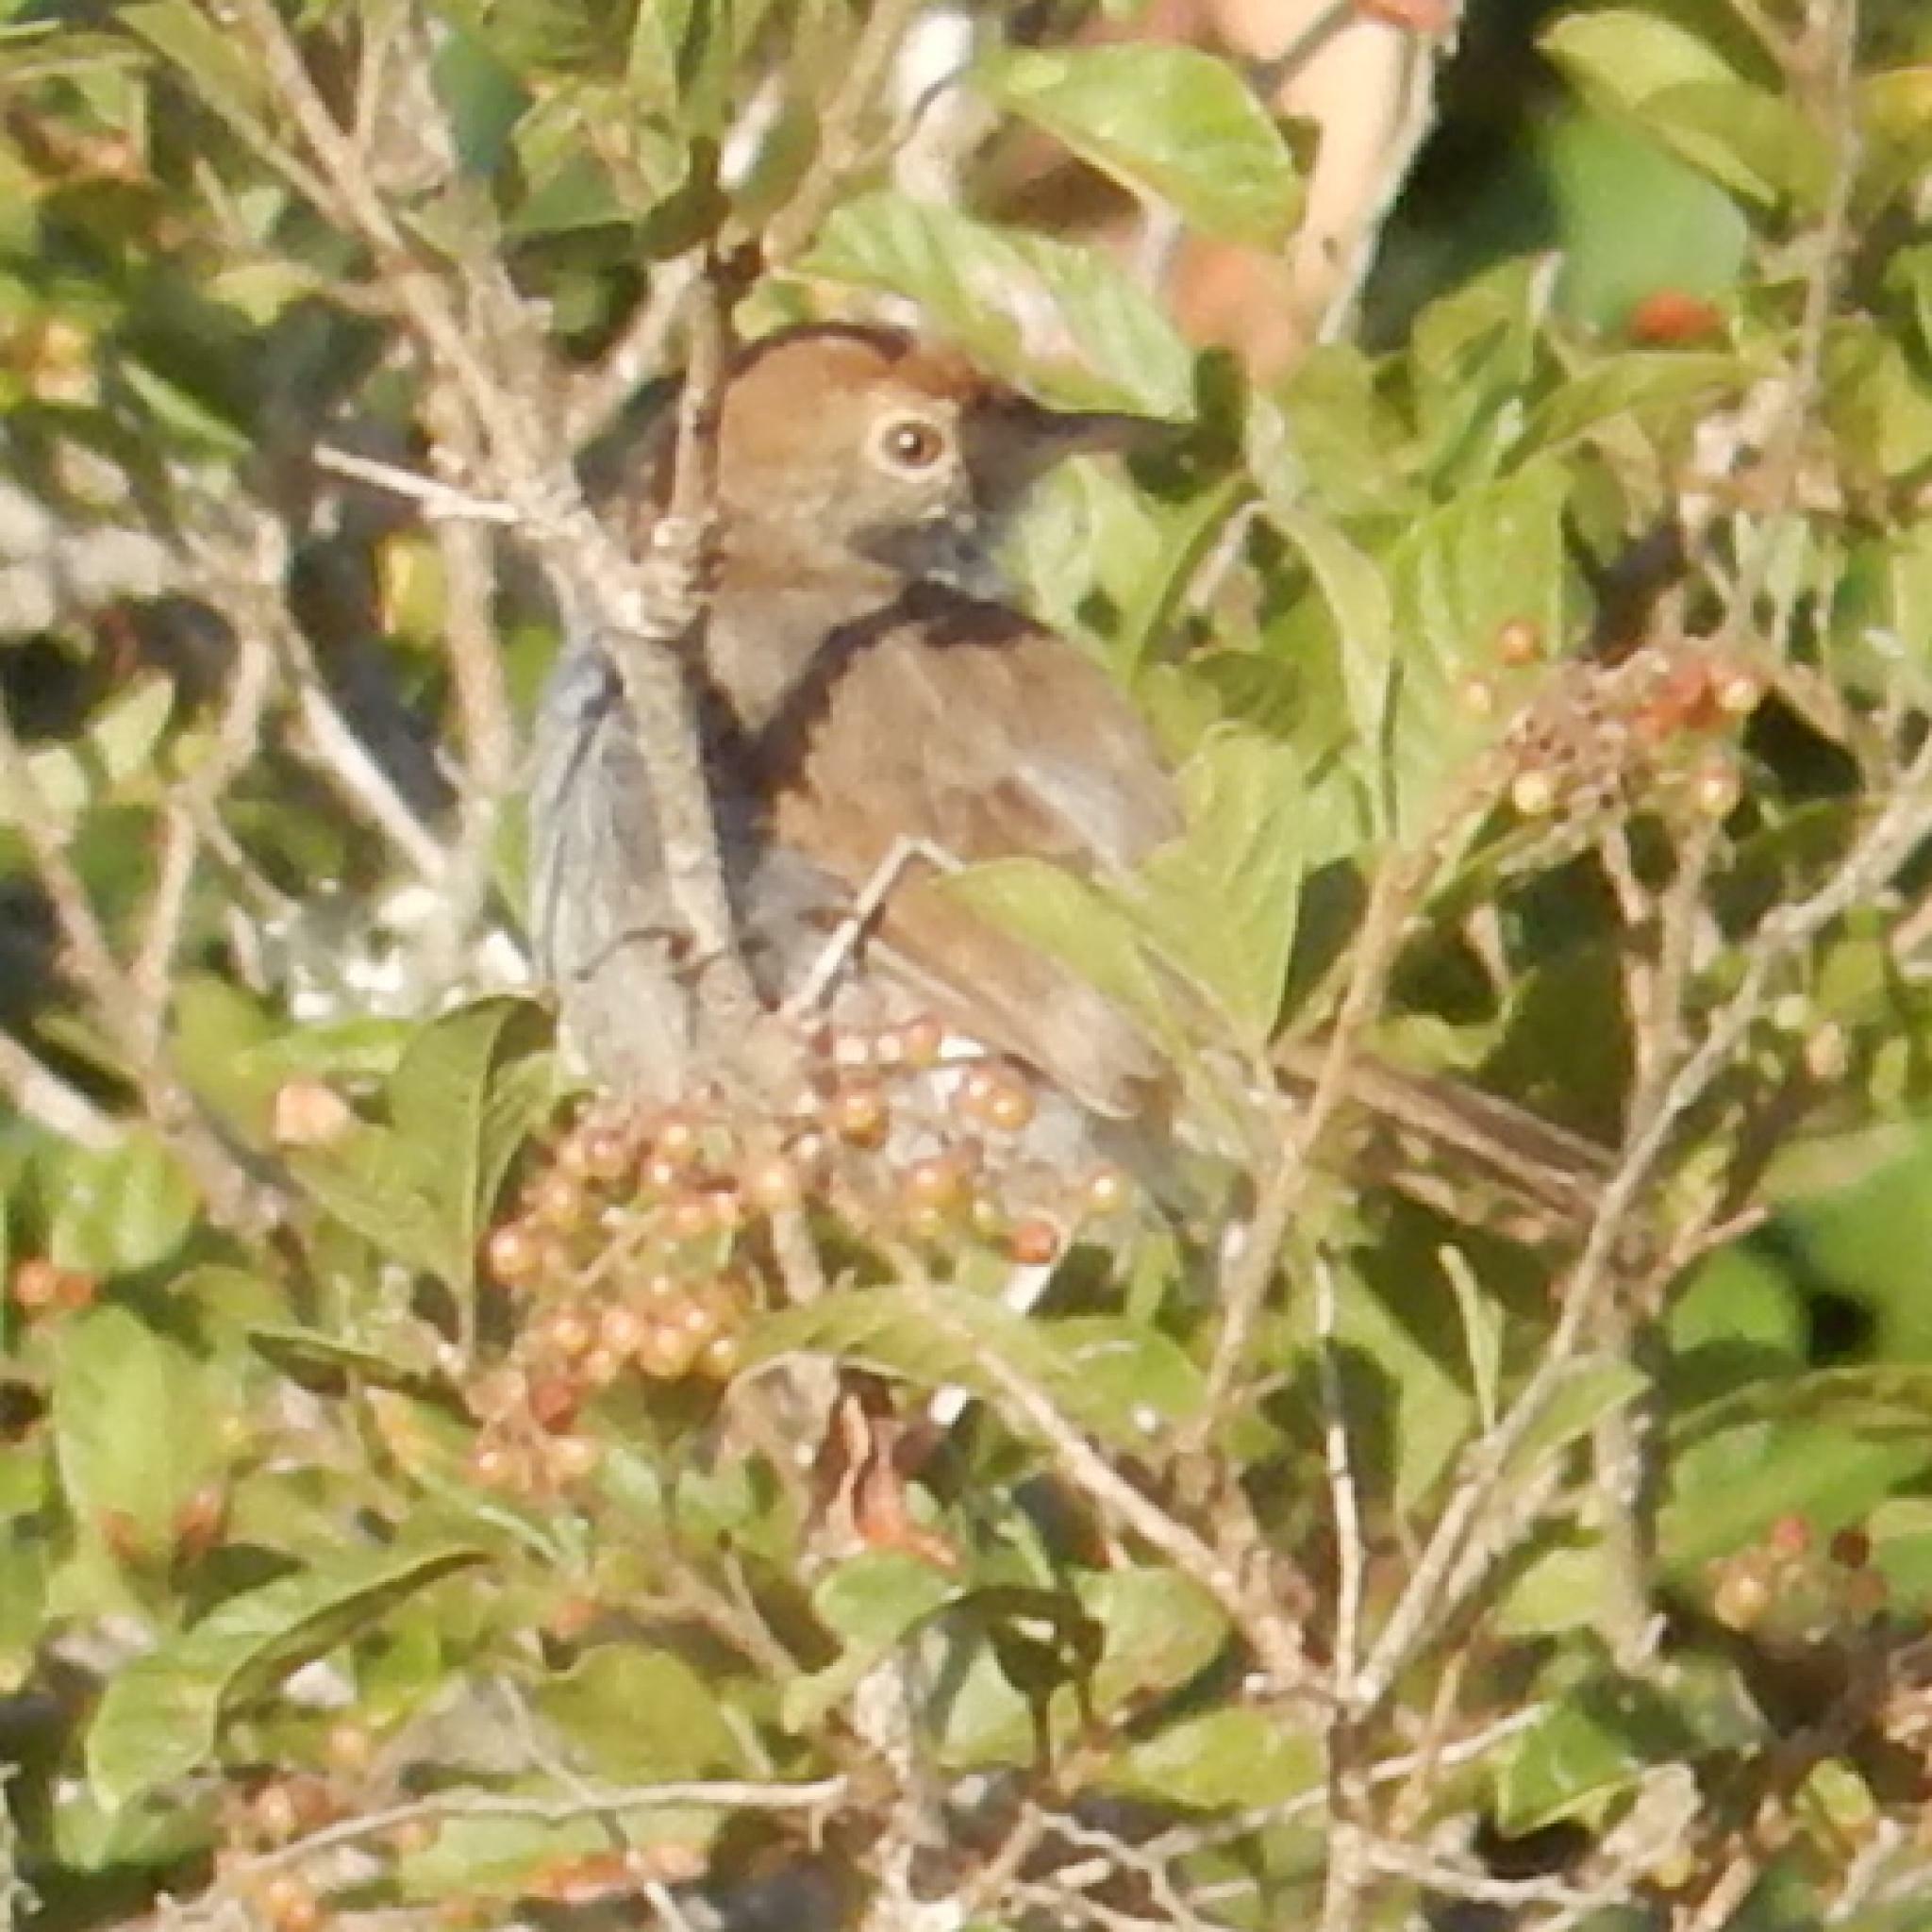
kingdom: Animalia
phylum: Chordata
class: Aves
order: Passeriformes
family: Cisticolidae
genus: Cisticola
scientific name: Cisticola fulvicapilla
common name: Neddicky
